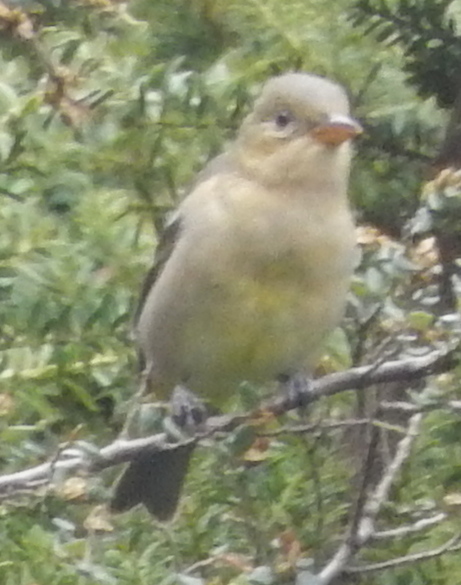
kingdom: Animalia
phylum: Chordata
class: Aves
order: Passeriformes
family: Cardinalidae
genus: Piranga
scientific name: Piranga ludoviciana
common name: Western tanager
